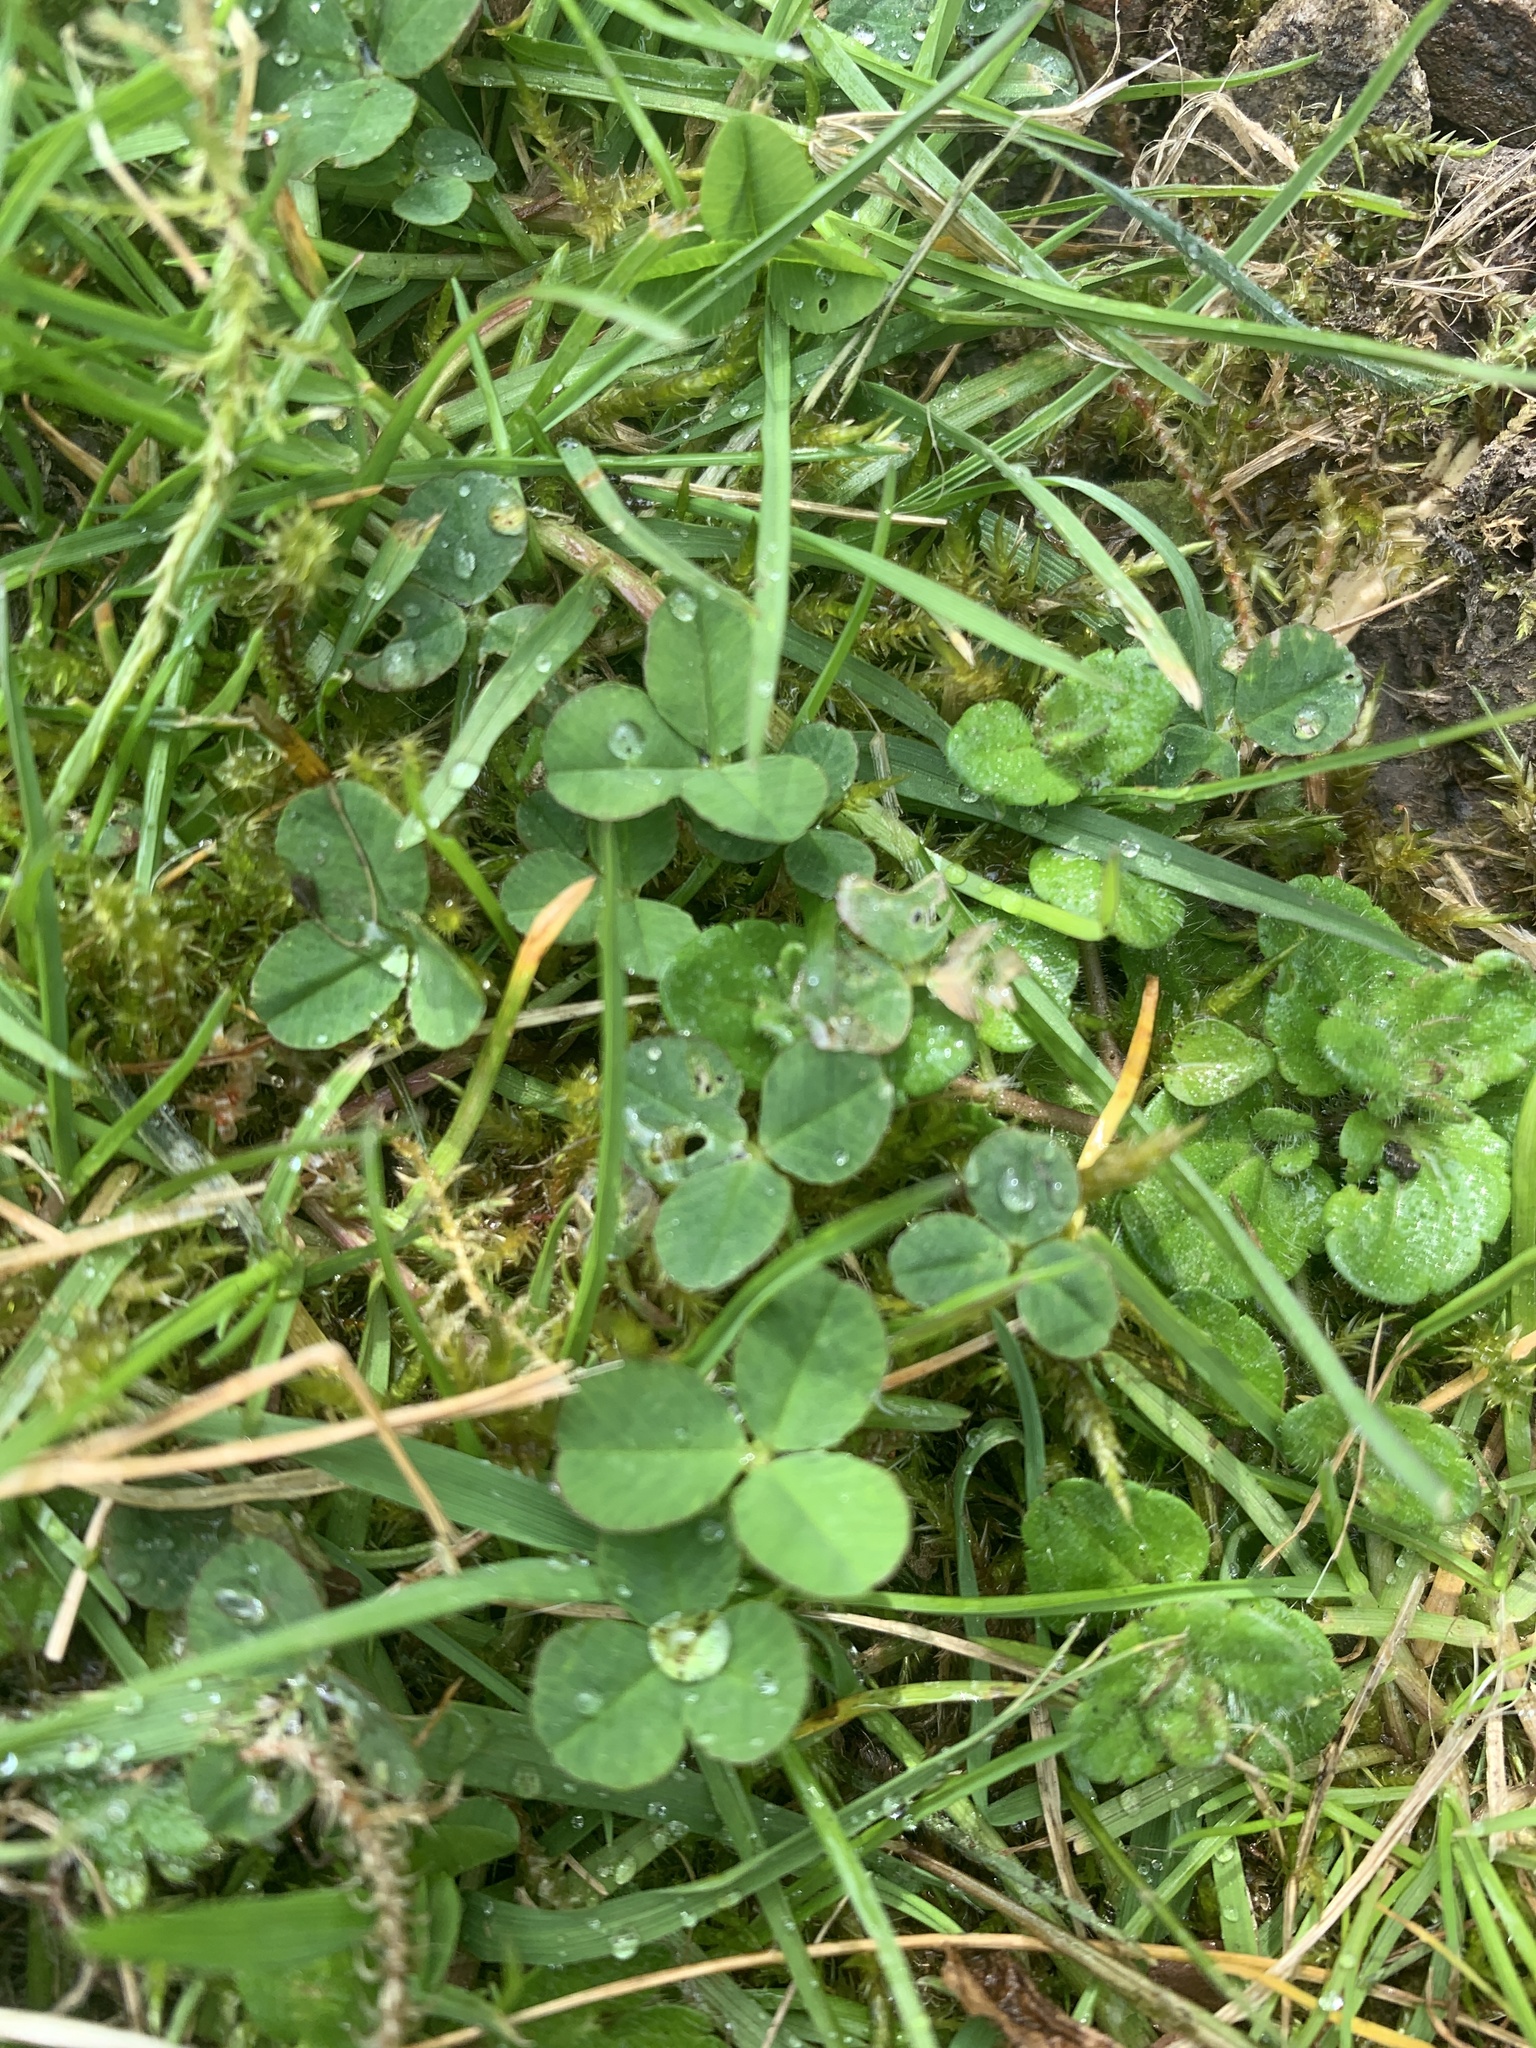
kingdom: Plantae
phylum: Tracheophyta
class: Magnoliopsida
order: Fabales
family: Fabaceae
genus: Trifolium
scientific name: Trifolium repens
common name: White clover
